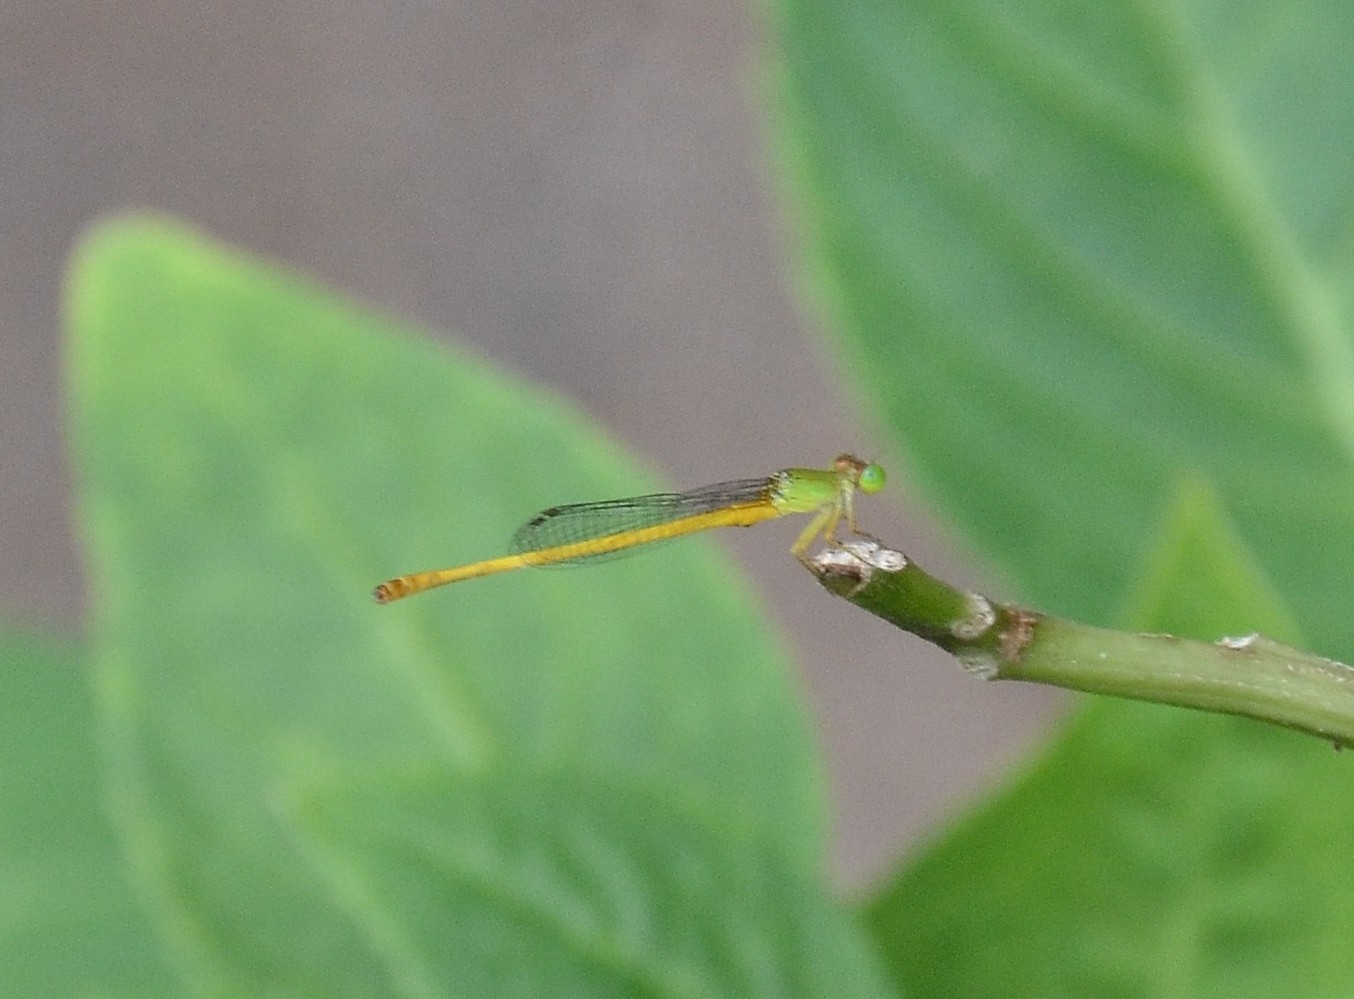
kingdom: Animalia
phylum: Arthropoda
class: Insecta
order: Odonata
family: Coenagrionidae
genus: Ceriagrion
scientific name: Ceriagrion coromandelianum
